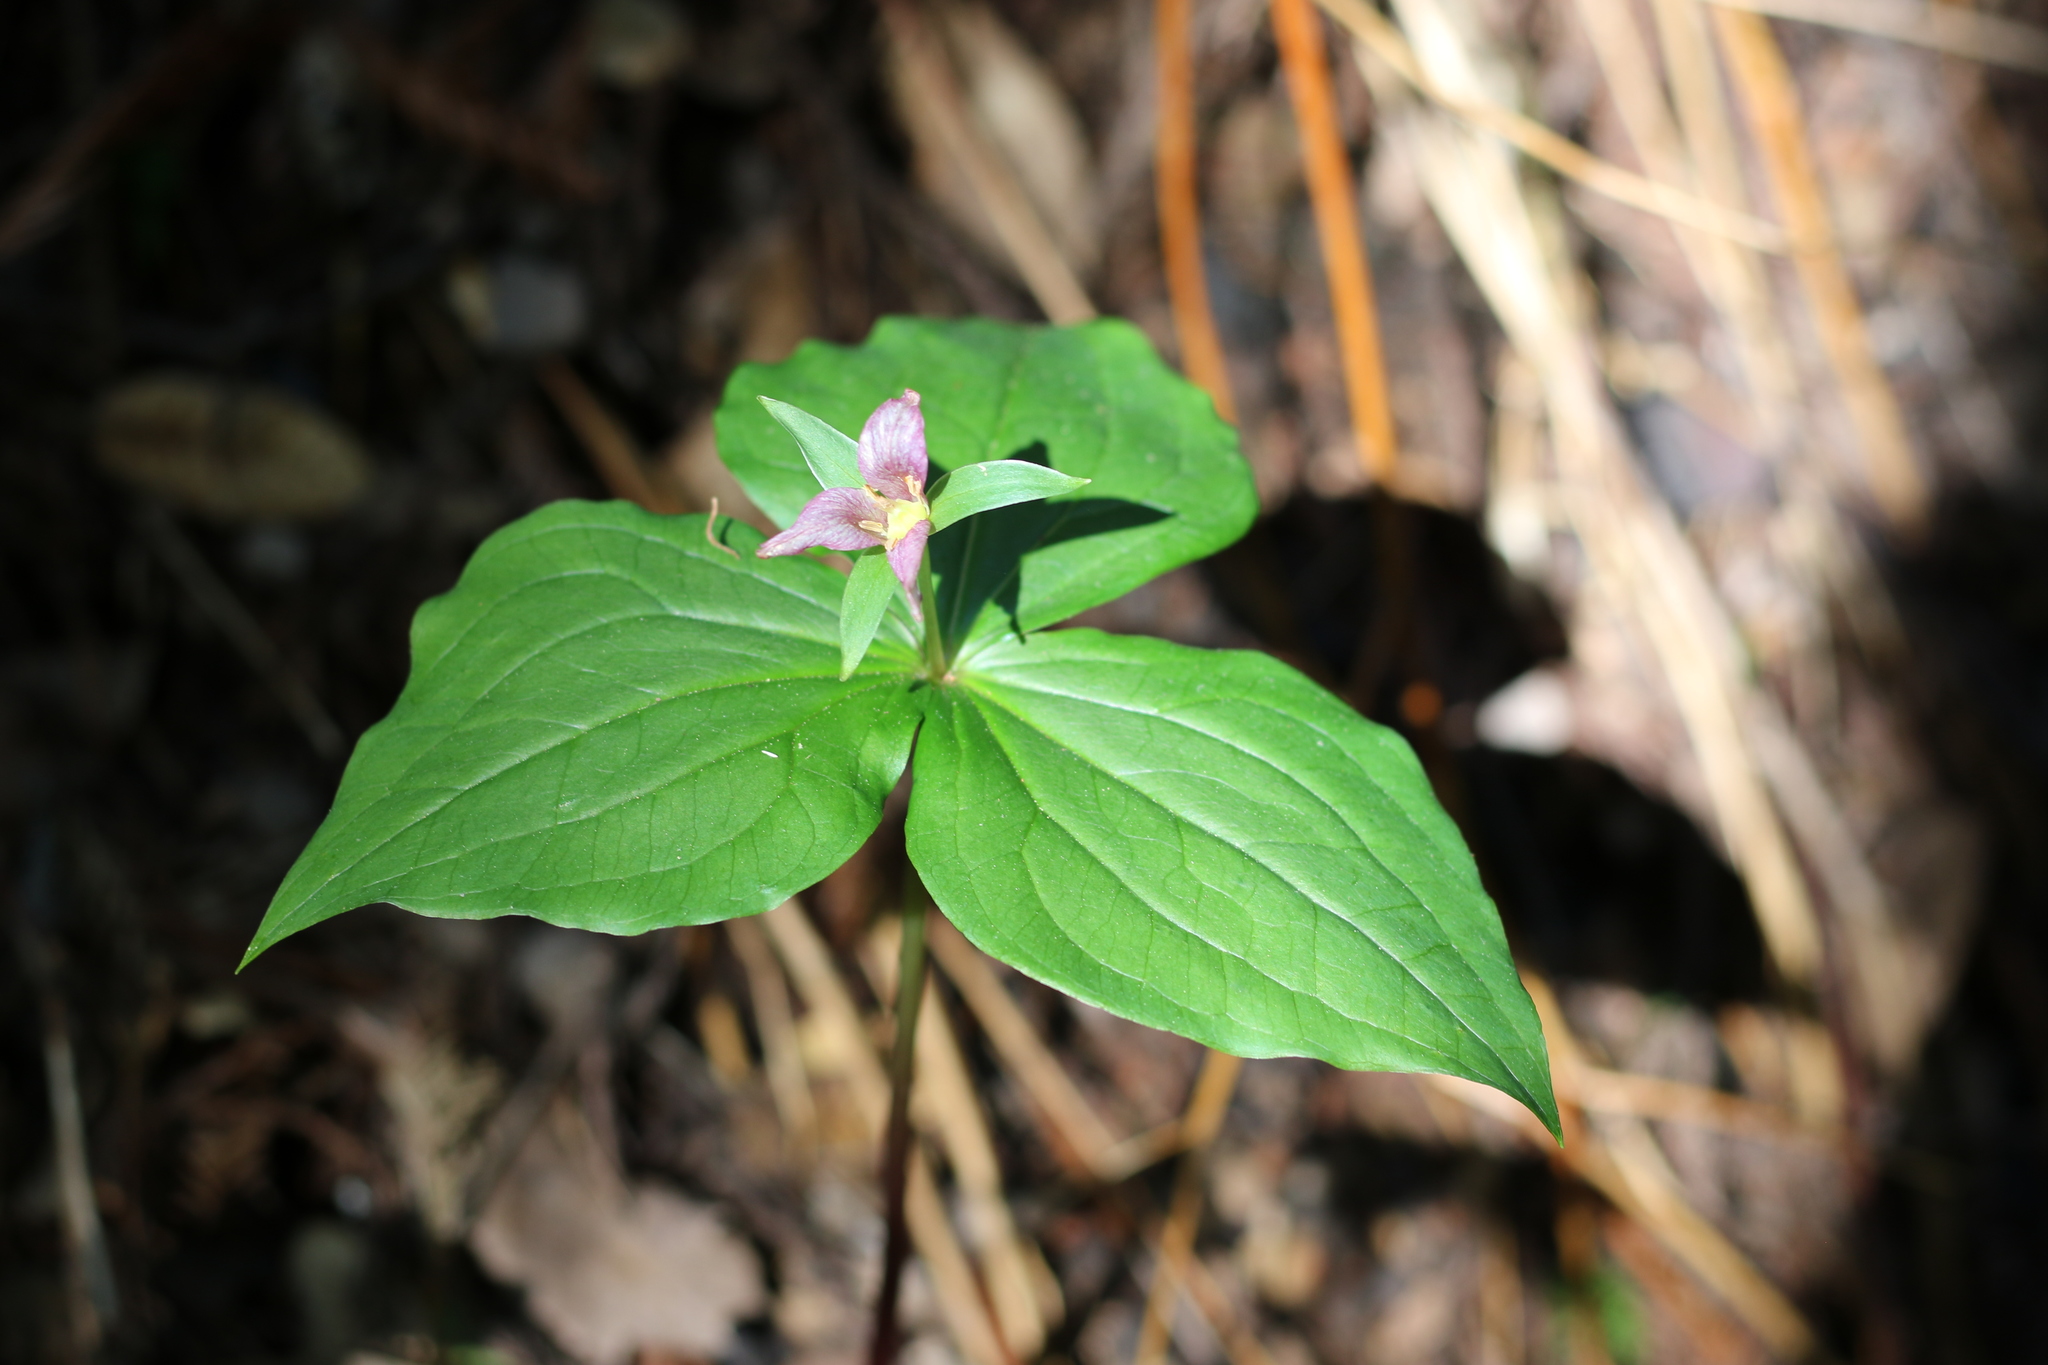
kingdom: Plantae
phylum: Tracheophyta
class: Liliopsida
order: Liliales
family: Melanthiaceae
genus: Trillium
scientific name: Trillium ovatum
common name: Pacific trillium
